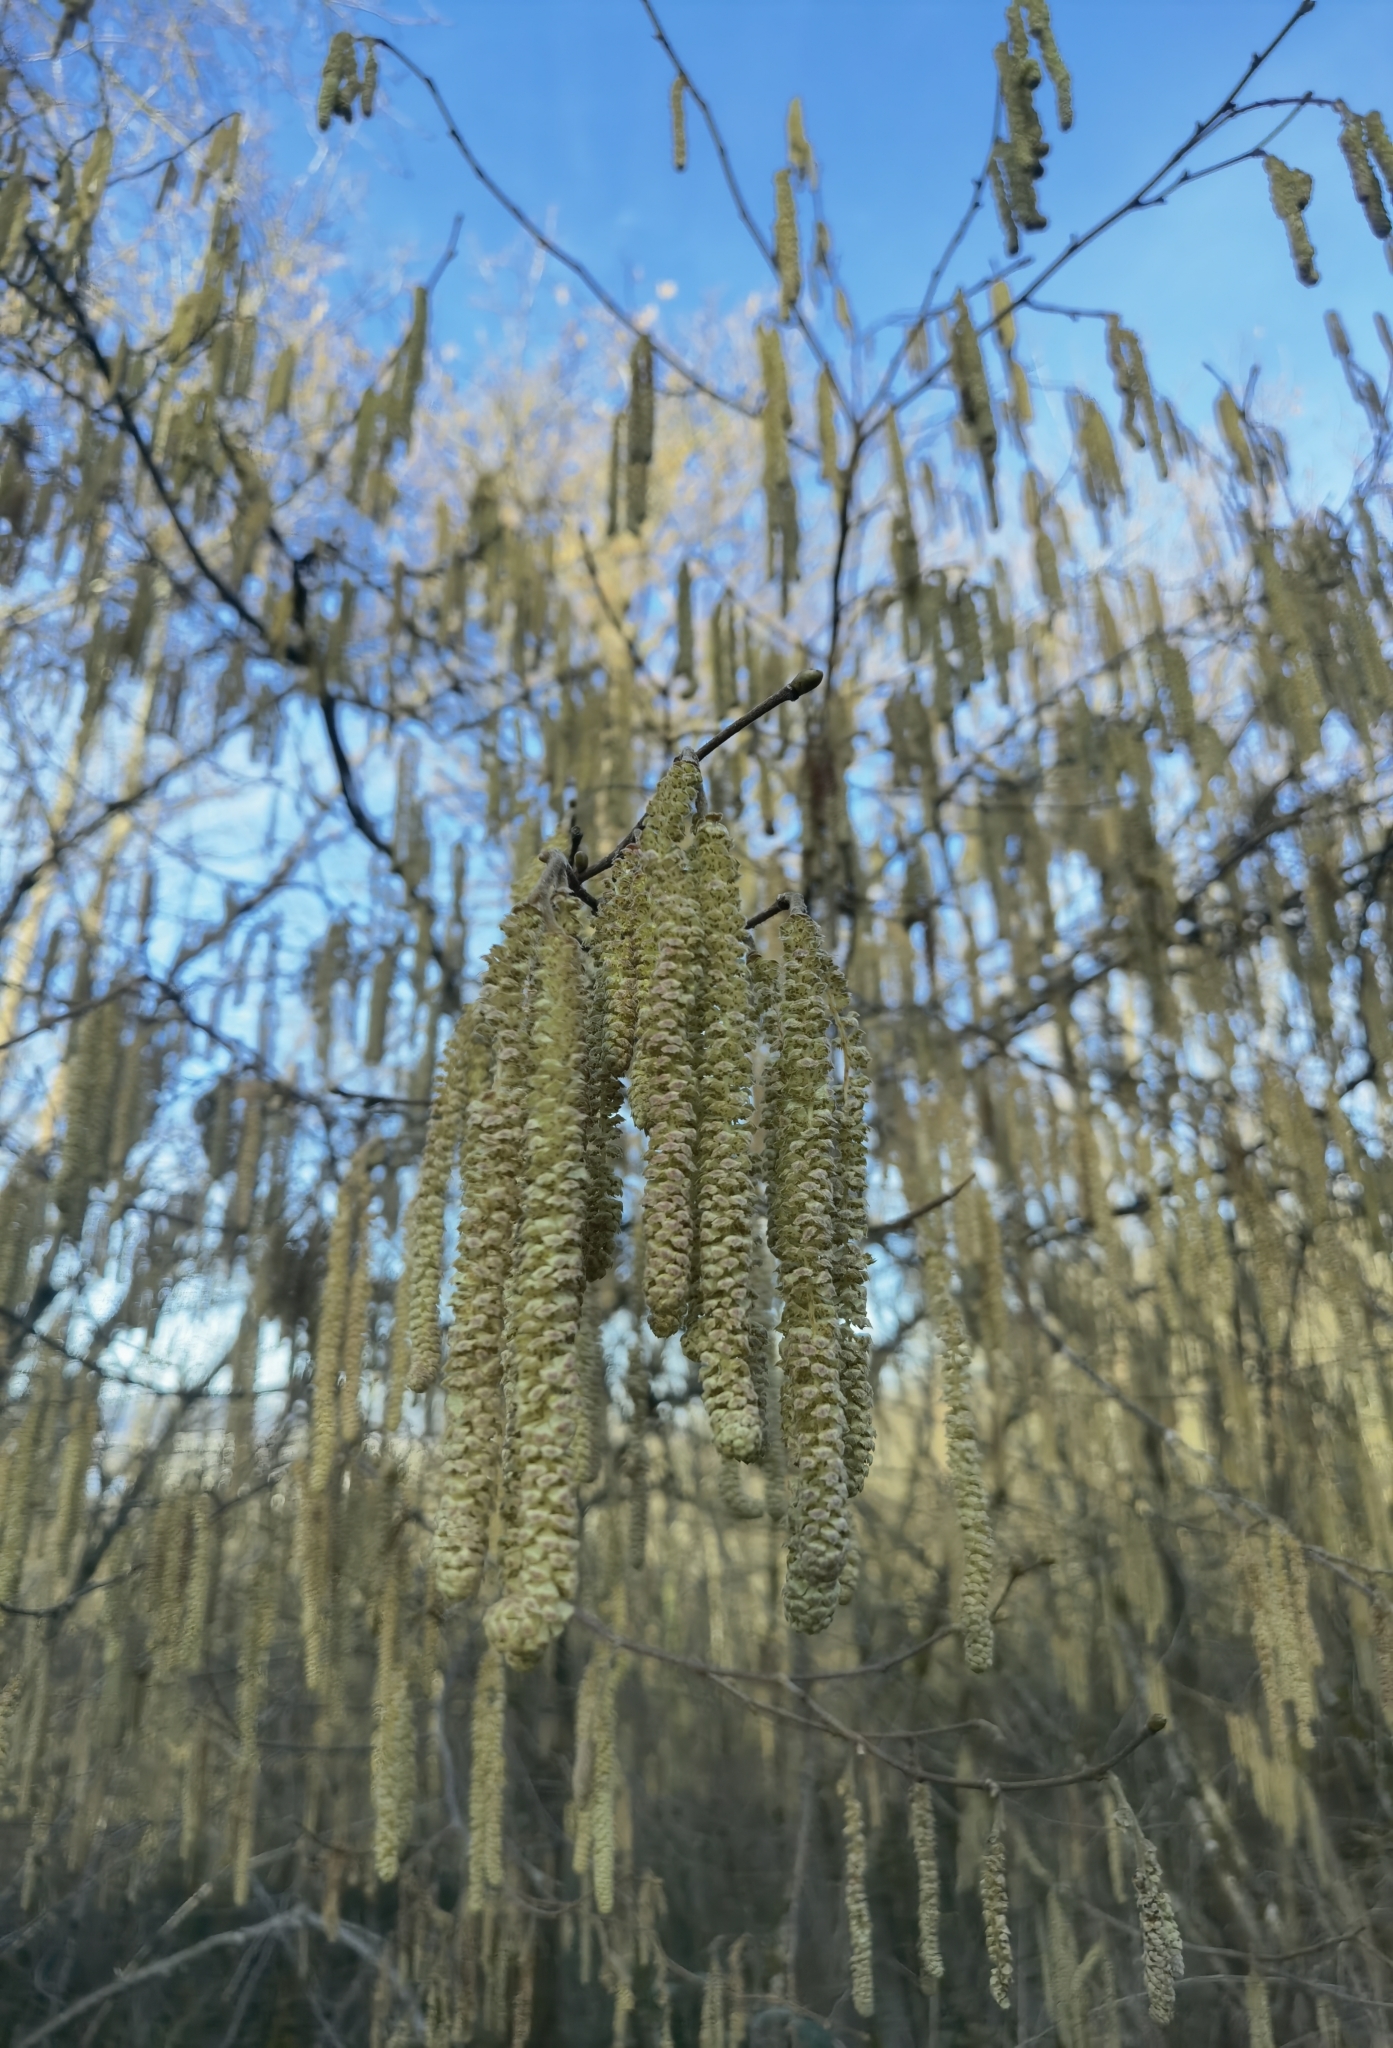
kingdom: Plantae
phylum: Tracheophyta
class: Magnoliopsida
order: Fagales
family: Betulaceae
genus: Corylus
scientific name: Corylus avellana
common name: European hazel
